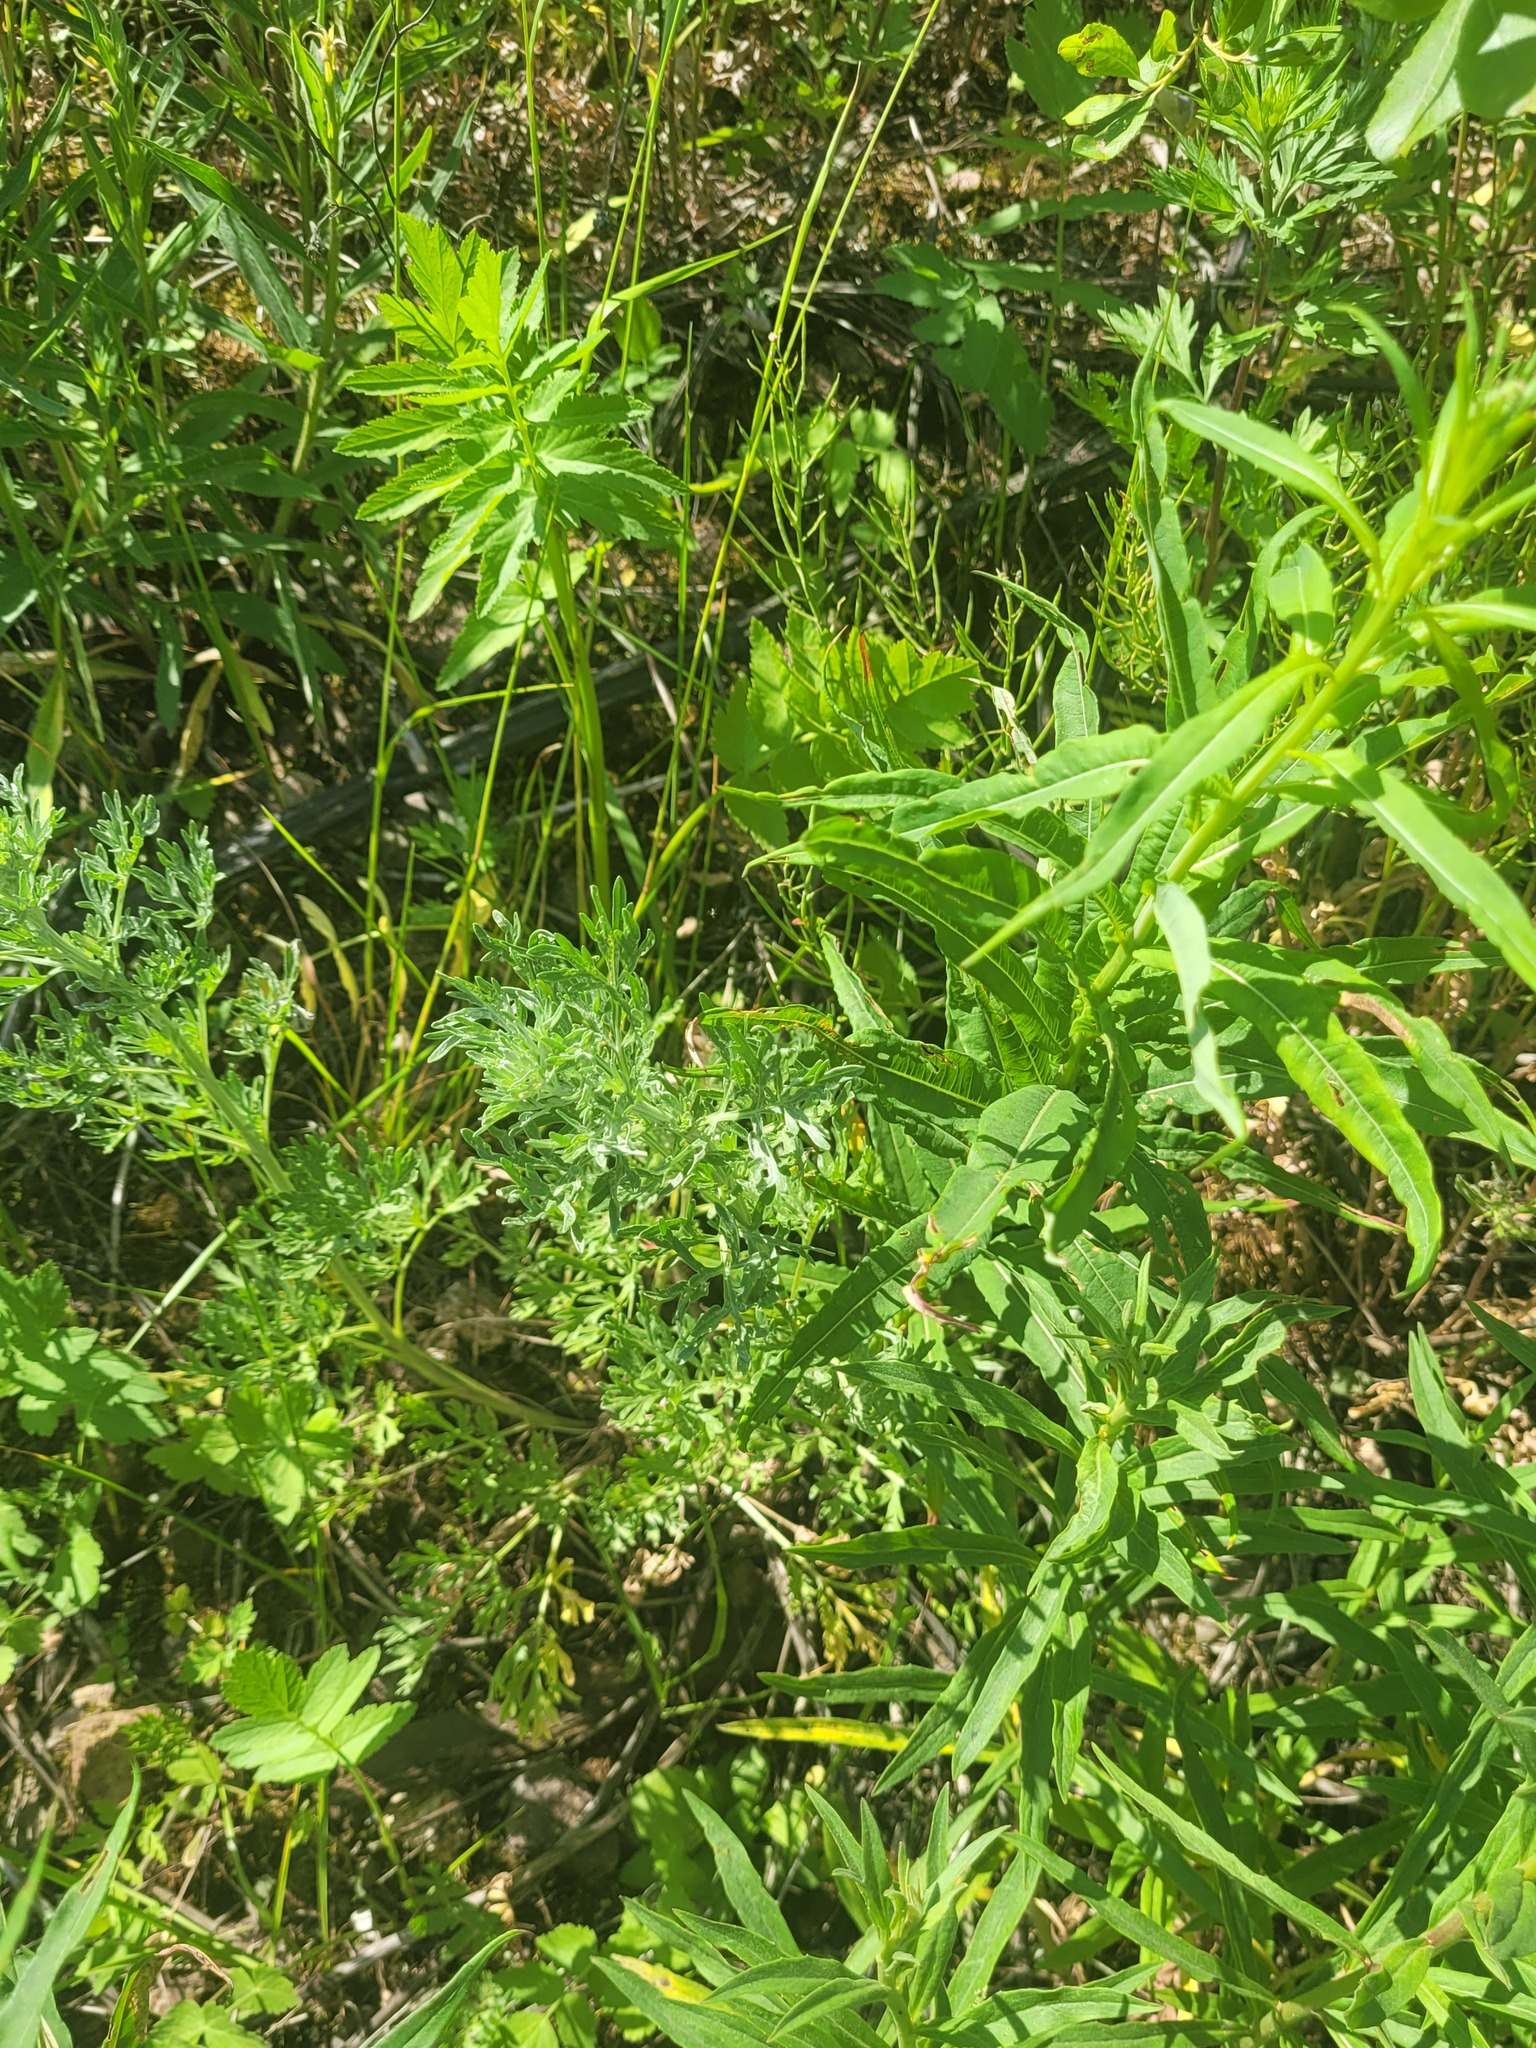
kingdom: Plantae
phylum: Tracheophyta
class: Magnoliopsida
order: Asterales
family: Asteraceae
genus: Artemisia
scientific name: Artemisia absinthium
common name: Wormwood
